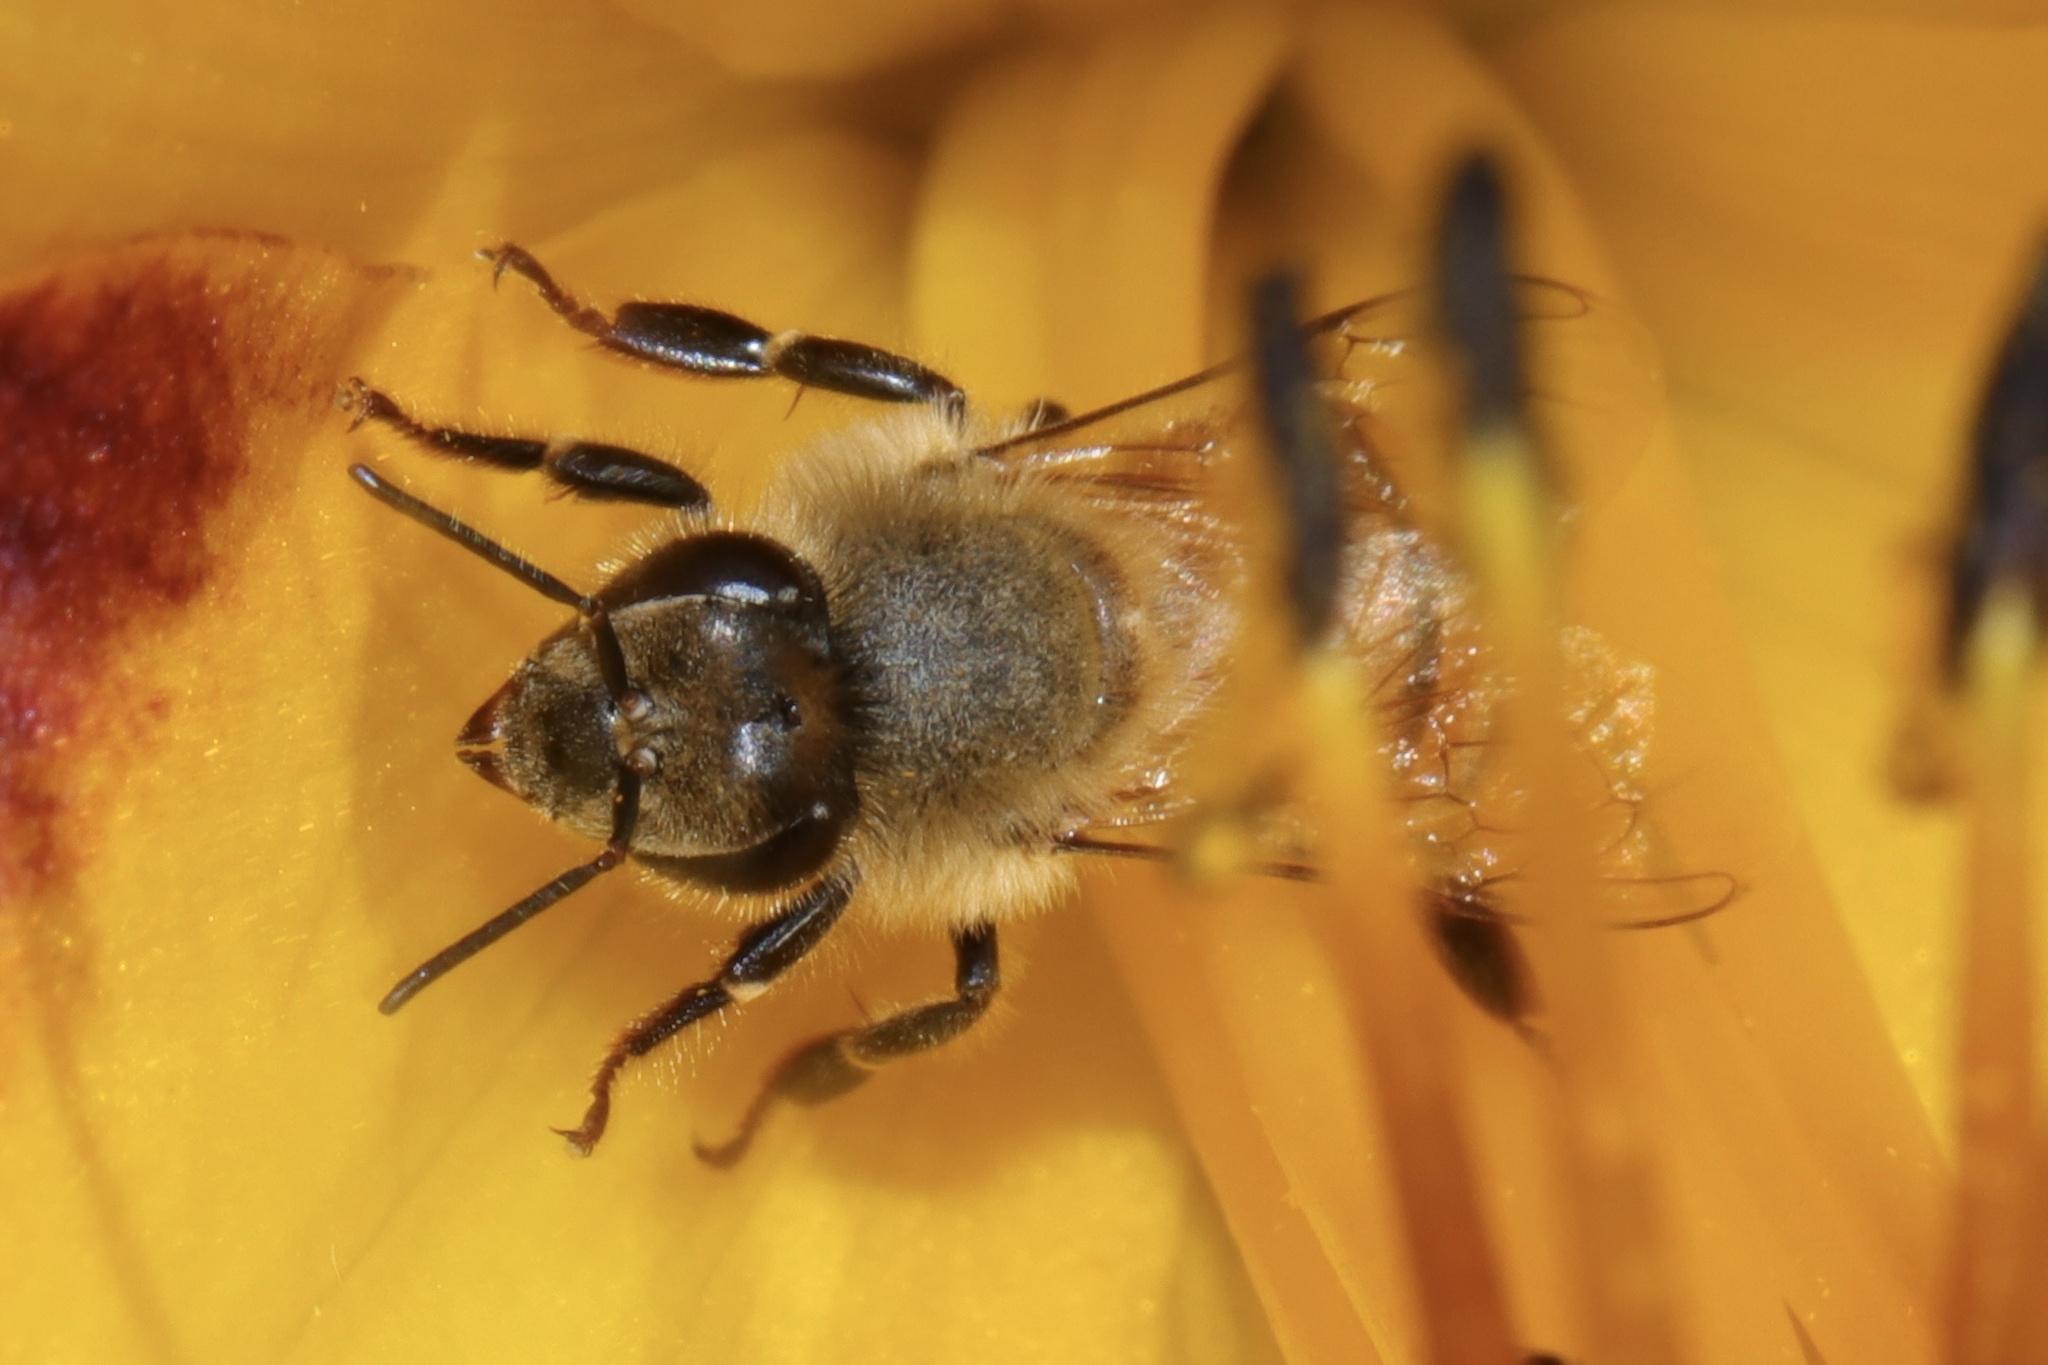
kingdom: Animalia
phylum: Arthropoda
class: Insecta
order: Hymenoptera
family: Apidae
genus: Apis
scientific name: Apis mellifera
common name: Honey bee
